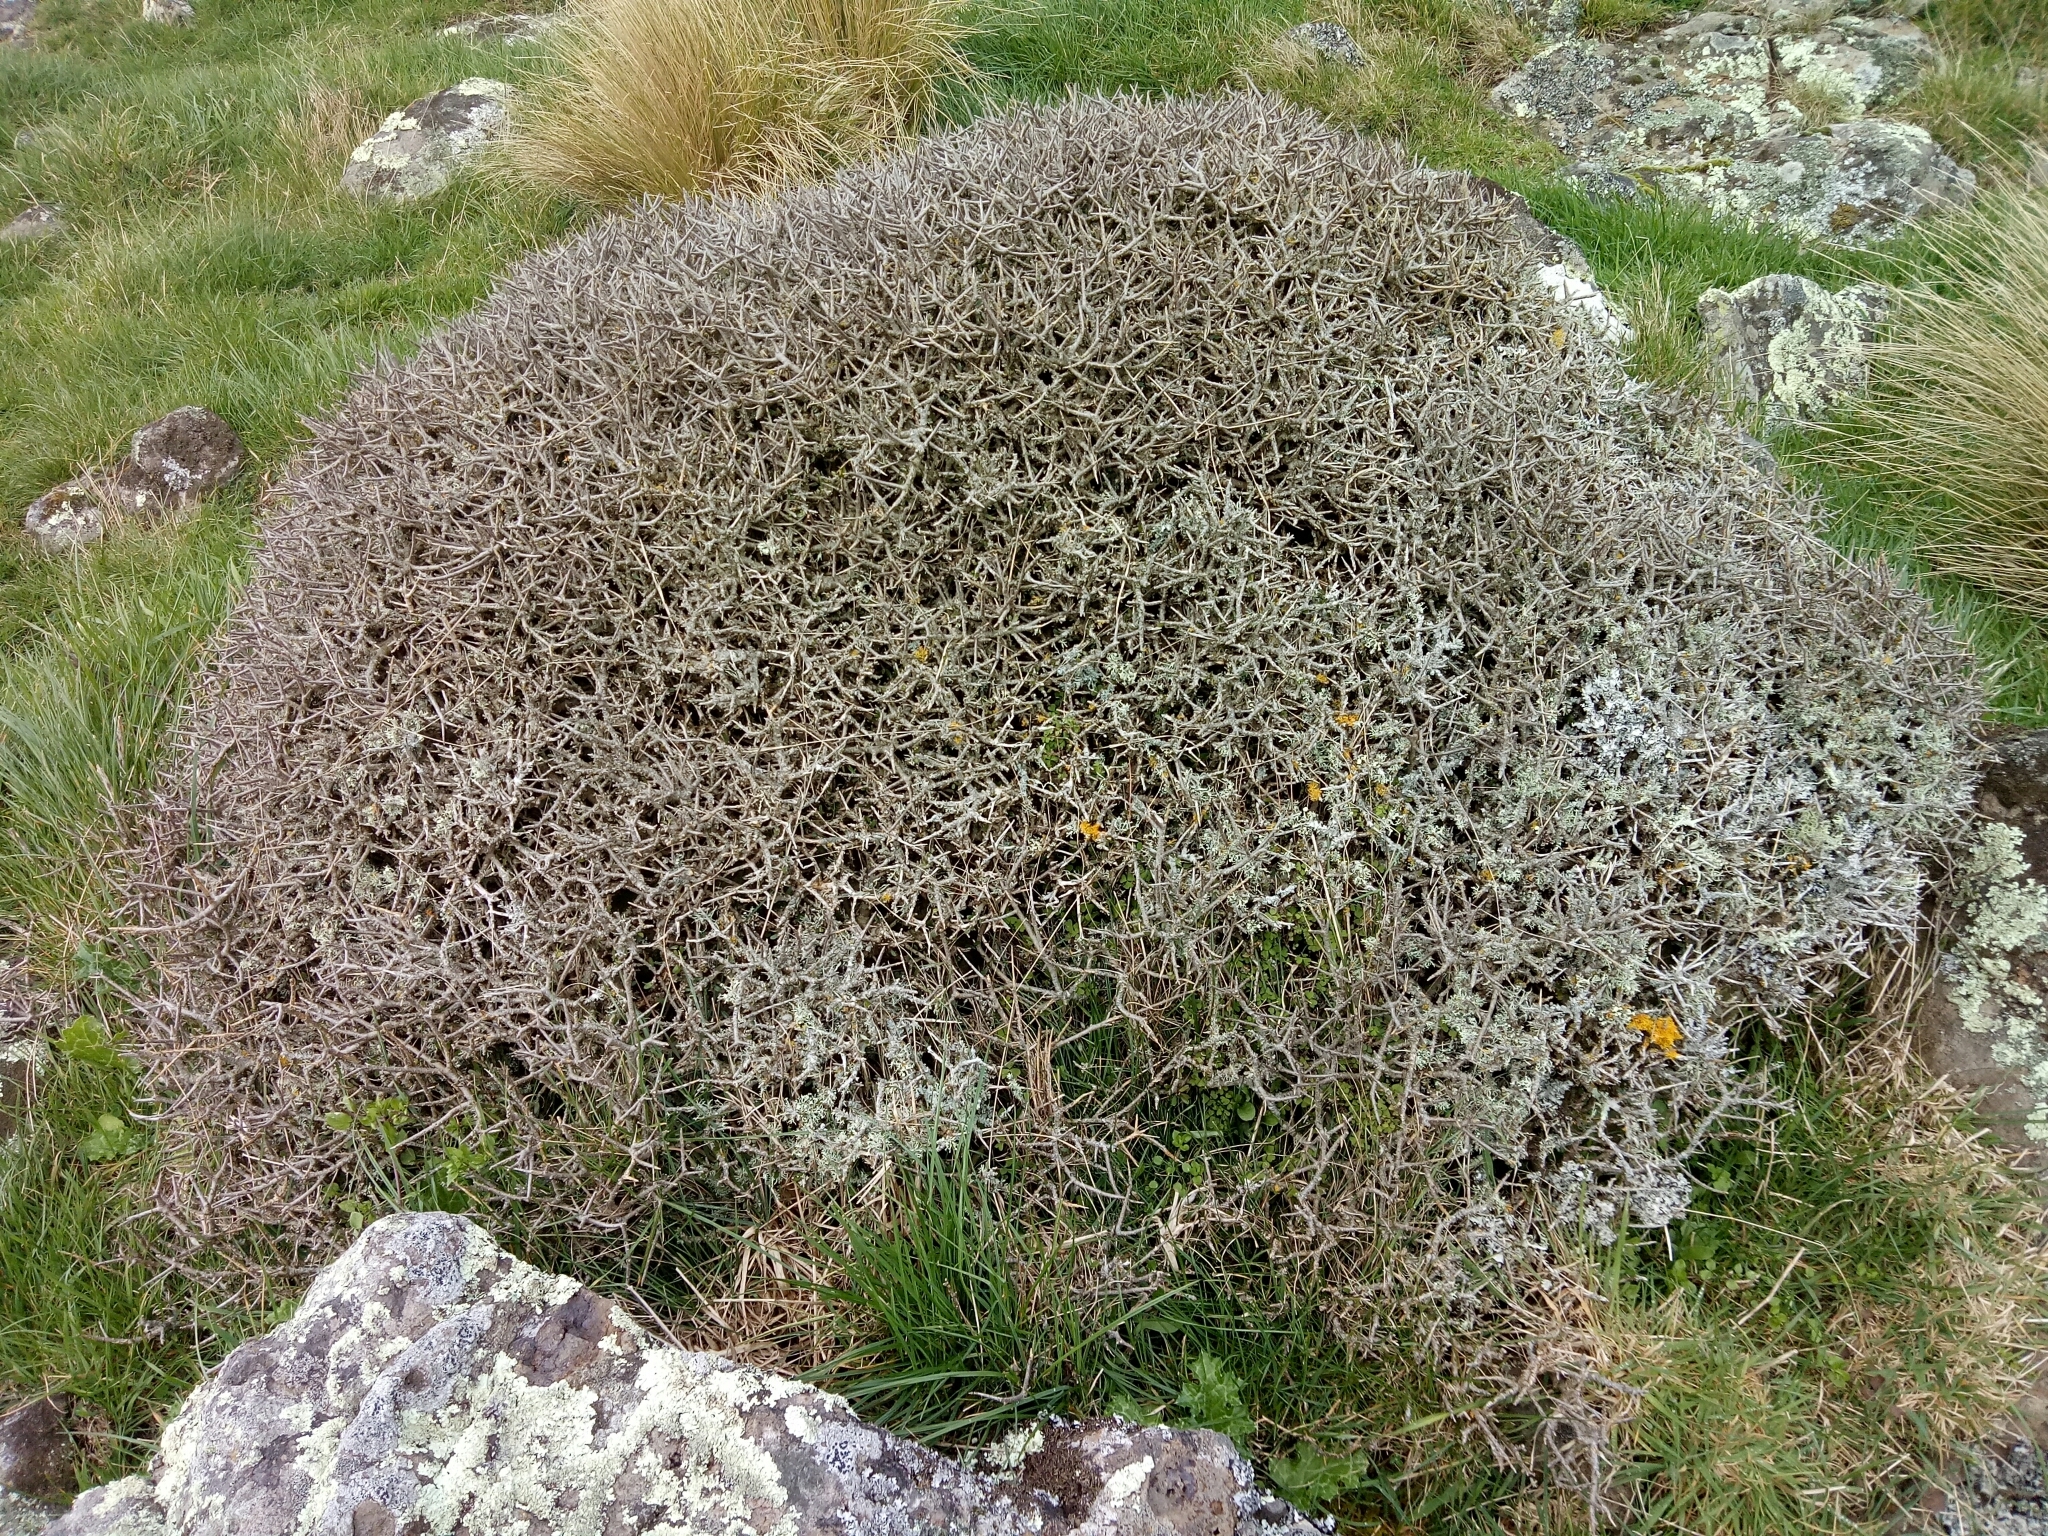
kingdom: Plantae
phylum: Tracheophyta
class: Magnoliopsida
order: Malpighiales
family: Violaceae
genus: Melicytus
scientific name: Melicytus alpinus
